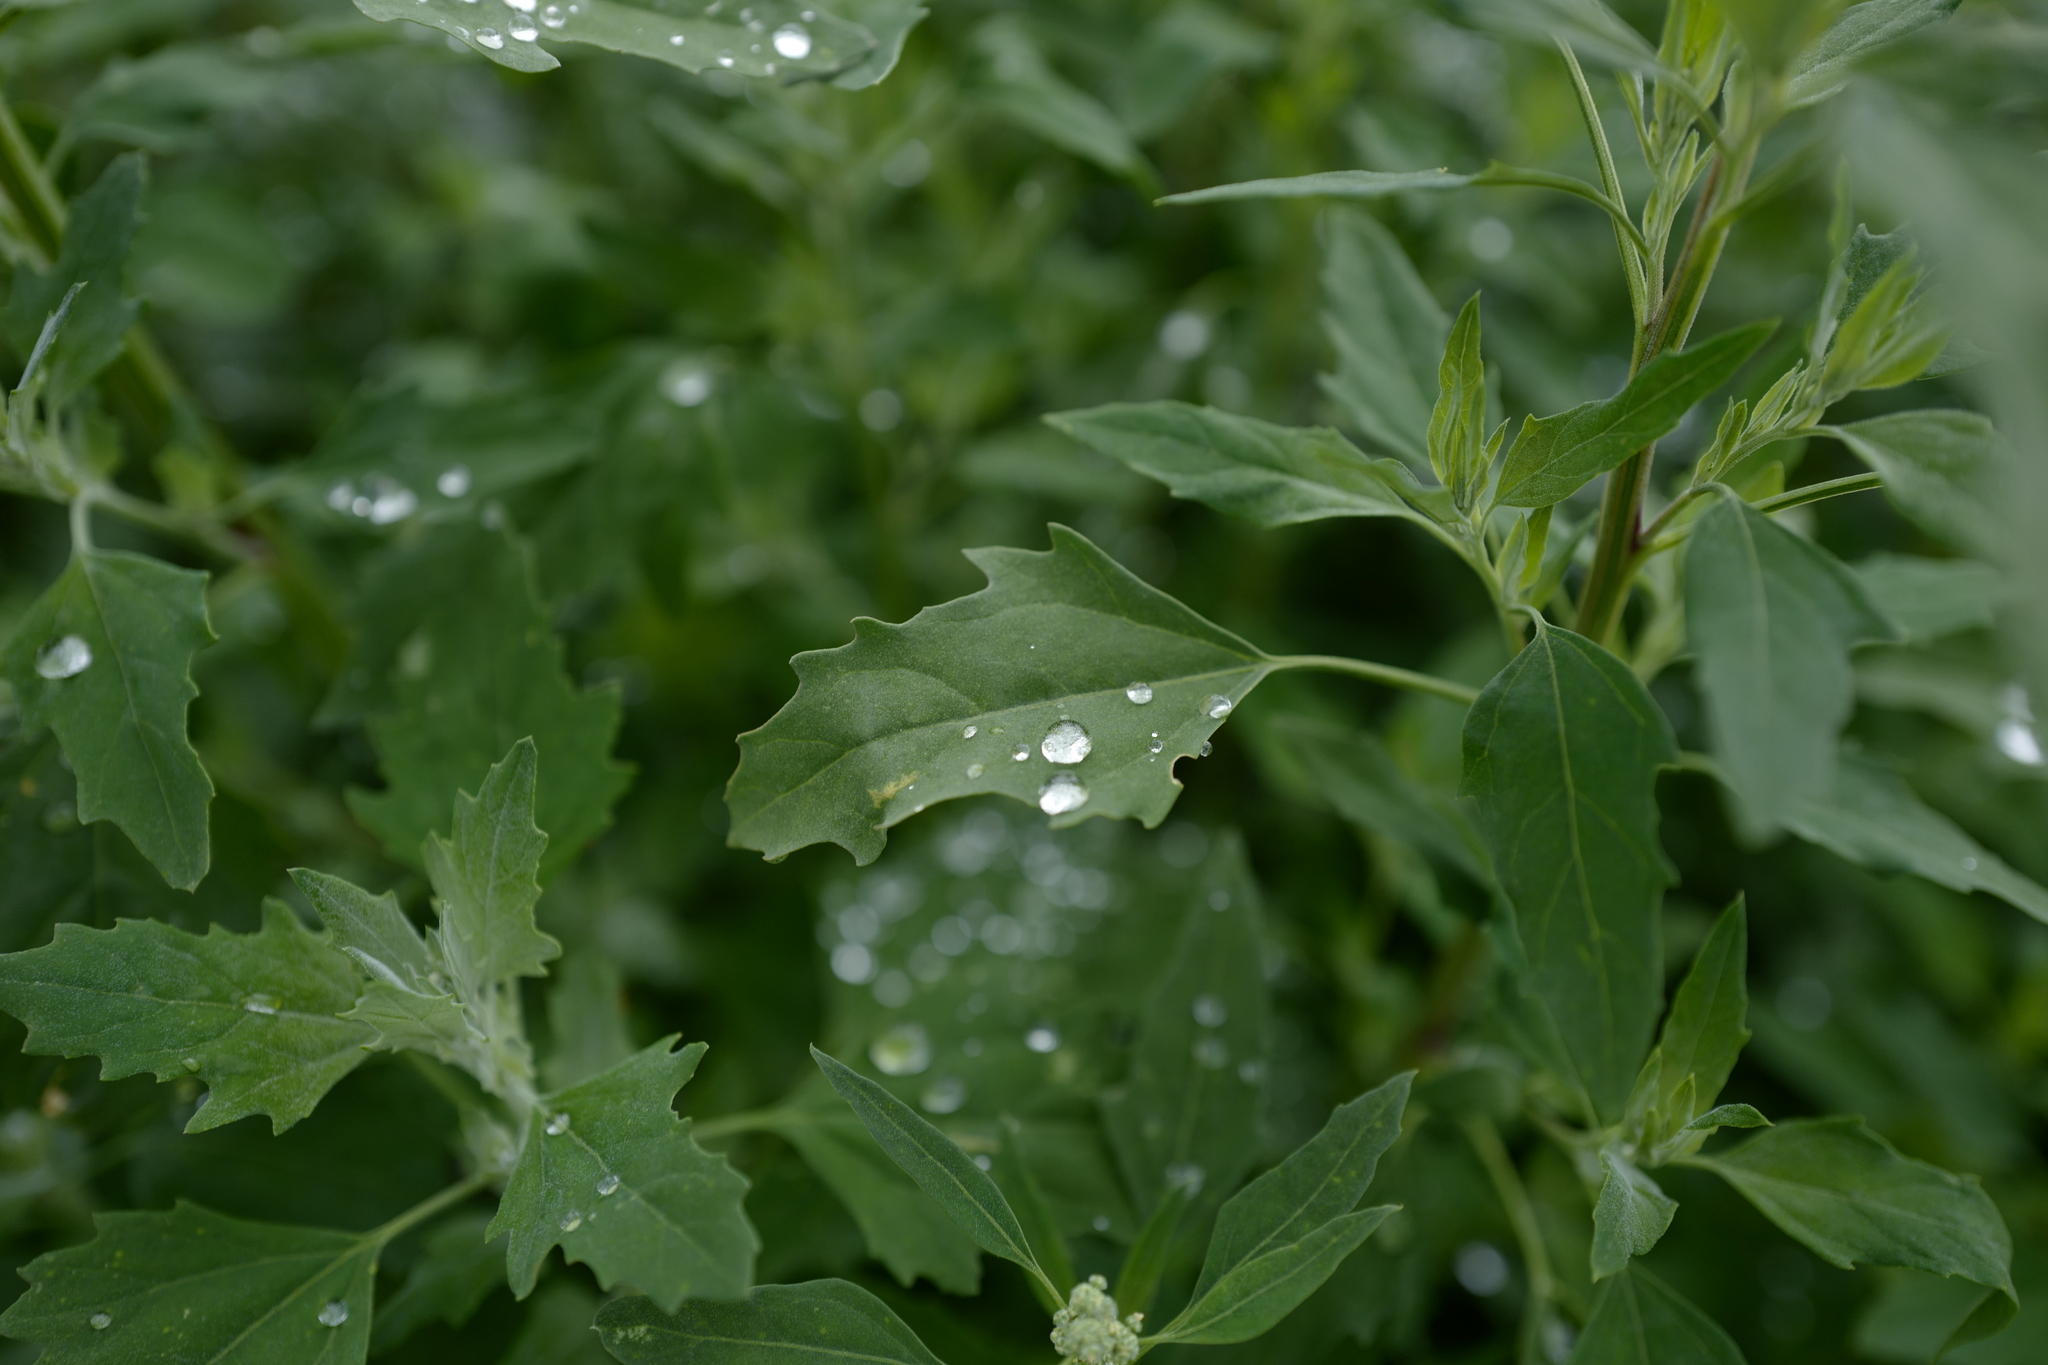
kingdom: Plantae
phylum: Tracheophyta
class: Magnoliopsida
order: Caryophyllales
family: Amaranthaceae
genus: Chenopodium
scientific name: Chenopodium album
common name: Fat-hen
